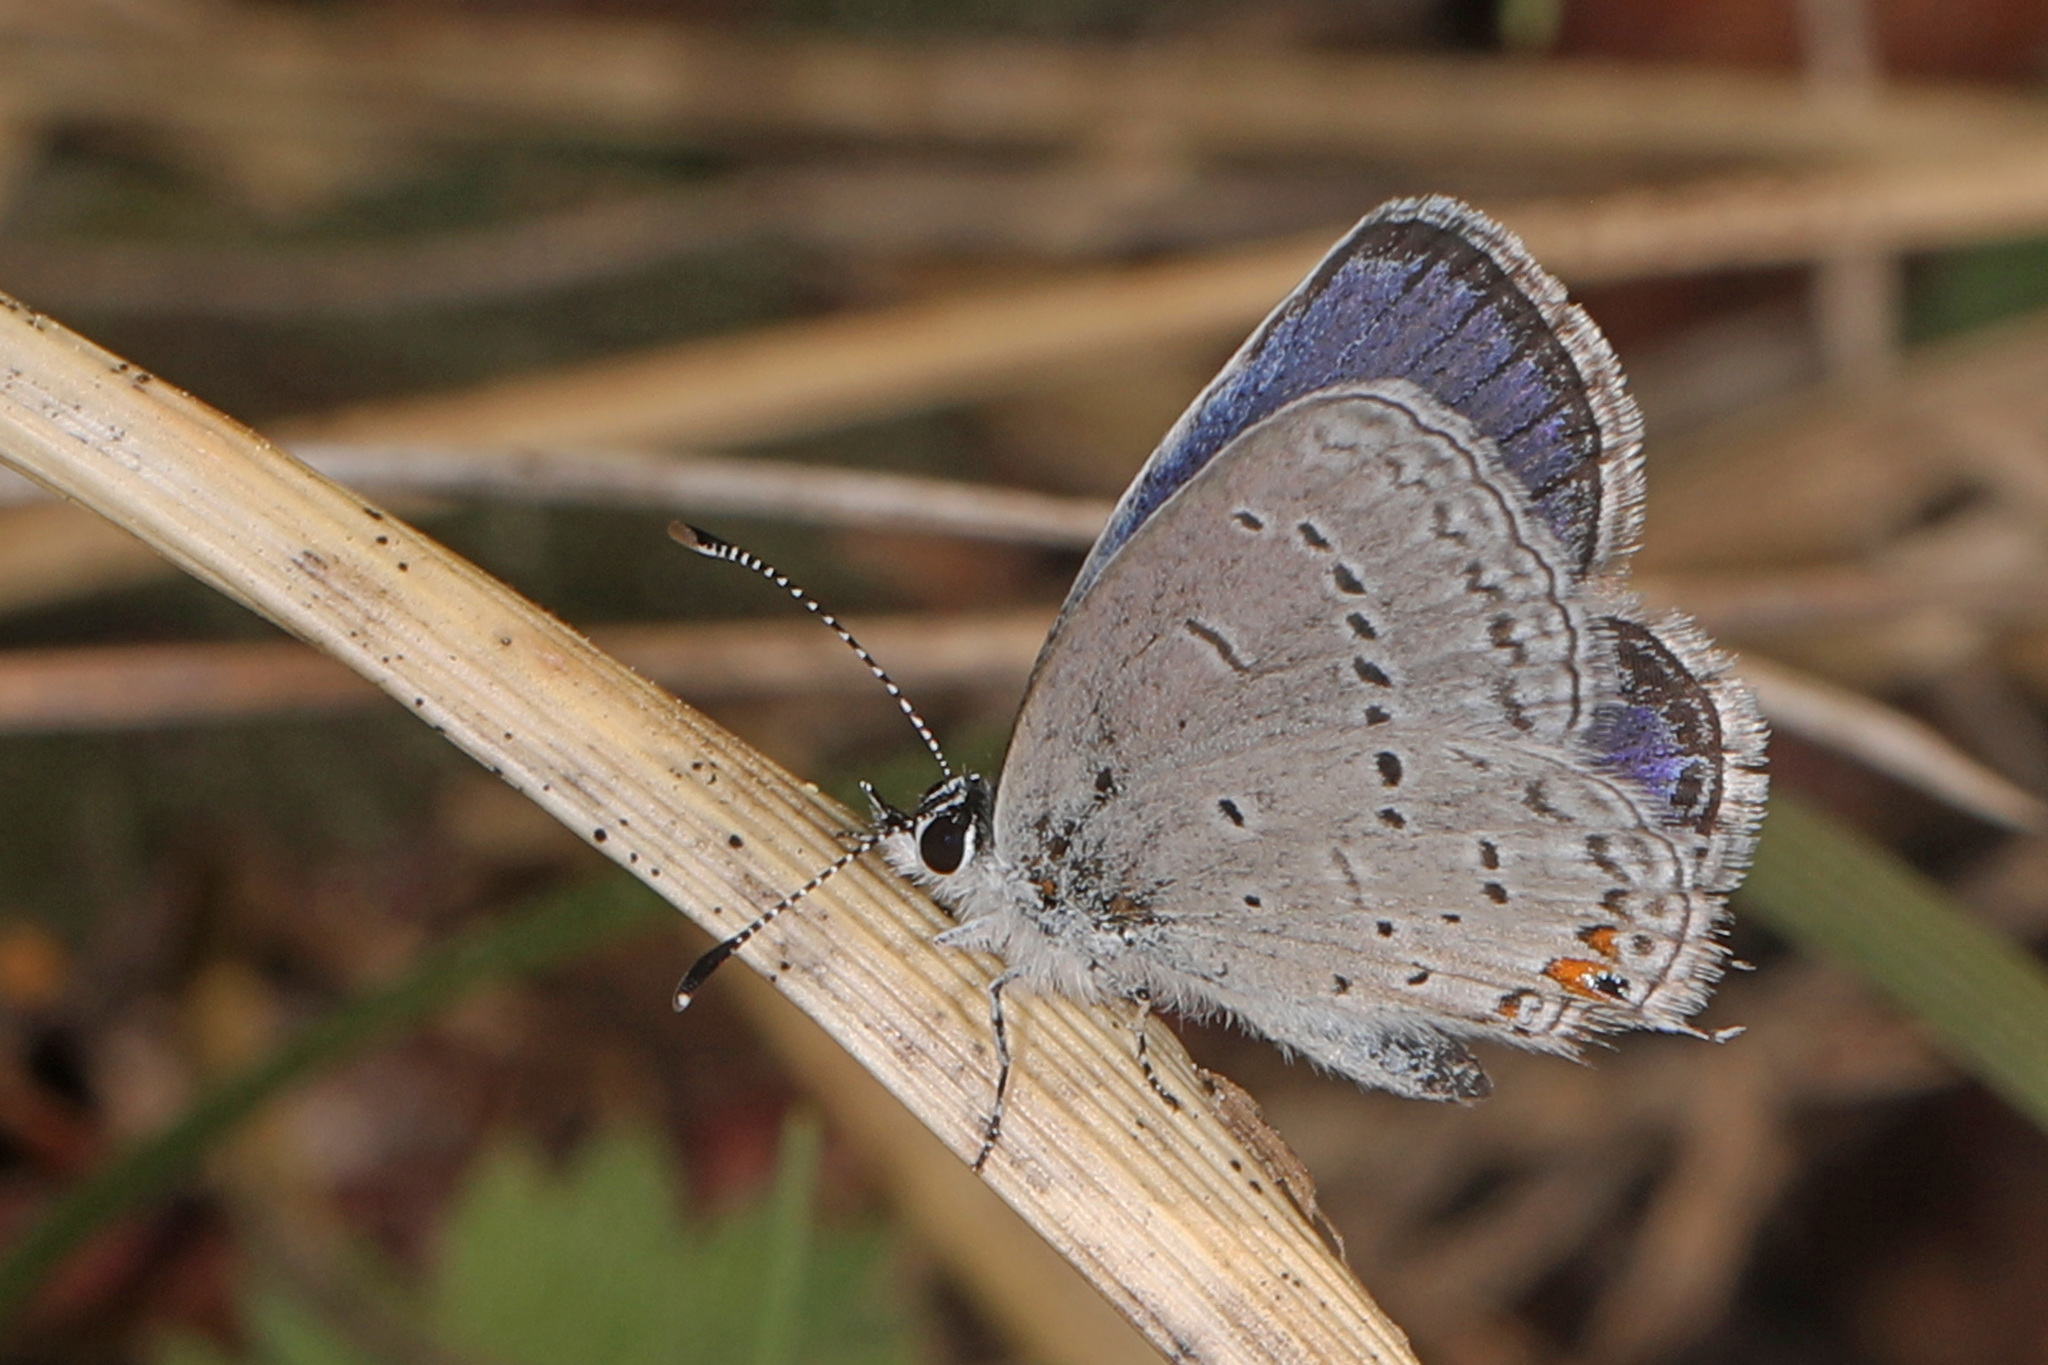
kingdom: Animalia
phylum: Arthropoda
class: Insecta
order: Lepidoptera
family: Lycaenidae
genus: Elkalyce
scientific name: Elkalyce comyntas
